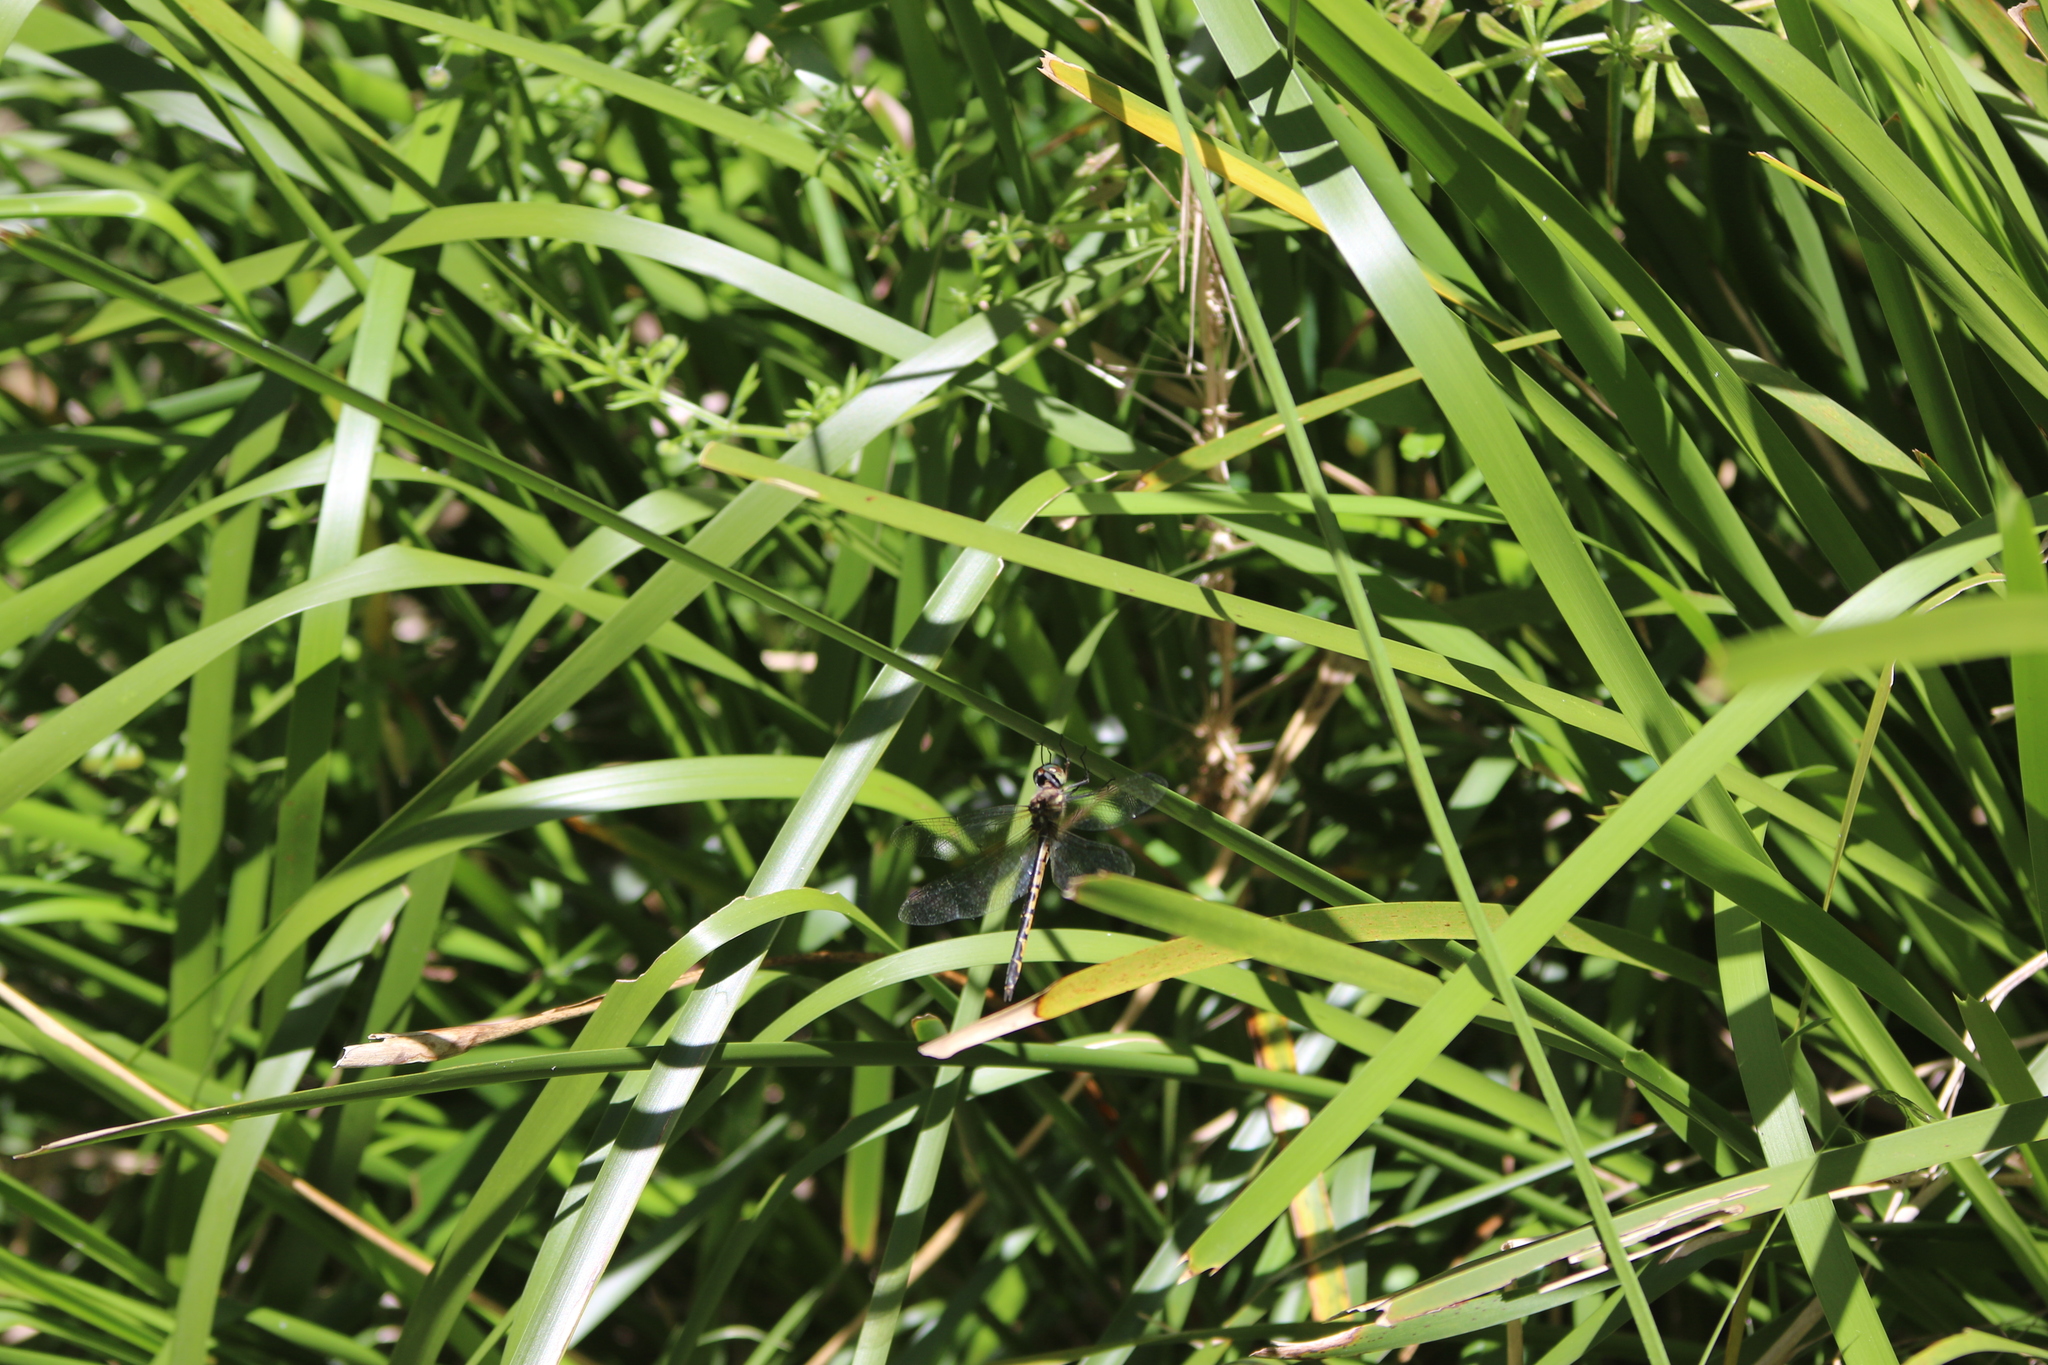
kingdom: Animalia
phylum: Arthropoda
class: Insecta
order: Odonata
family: Corduliidae
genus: Hemicordulia
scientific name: Hemicordulia australiae
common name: Sentry dragonfly
